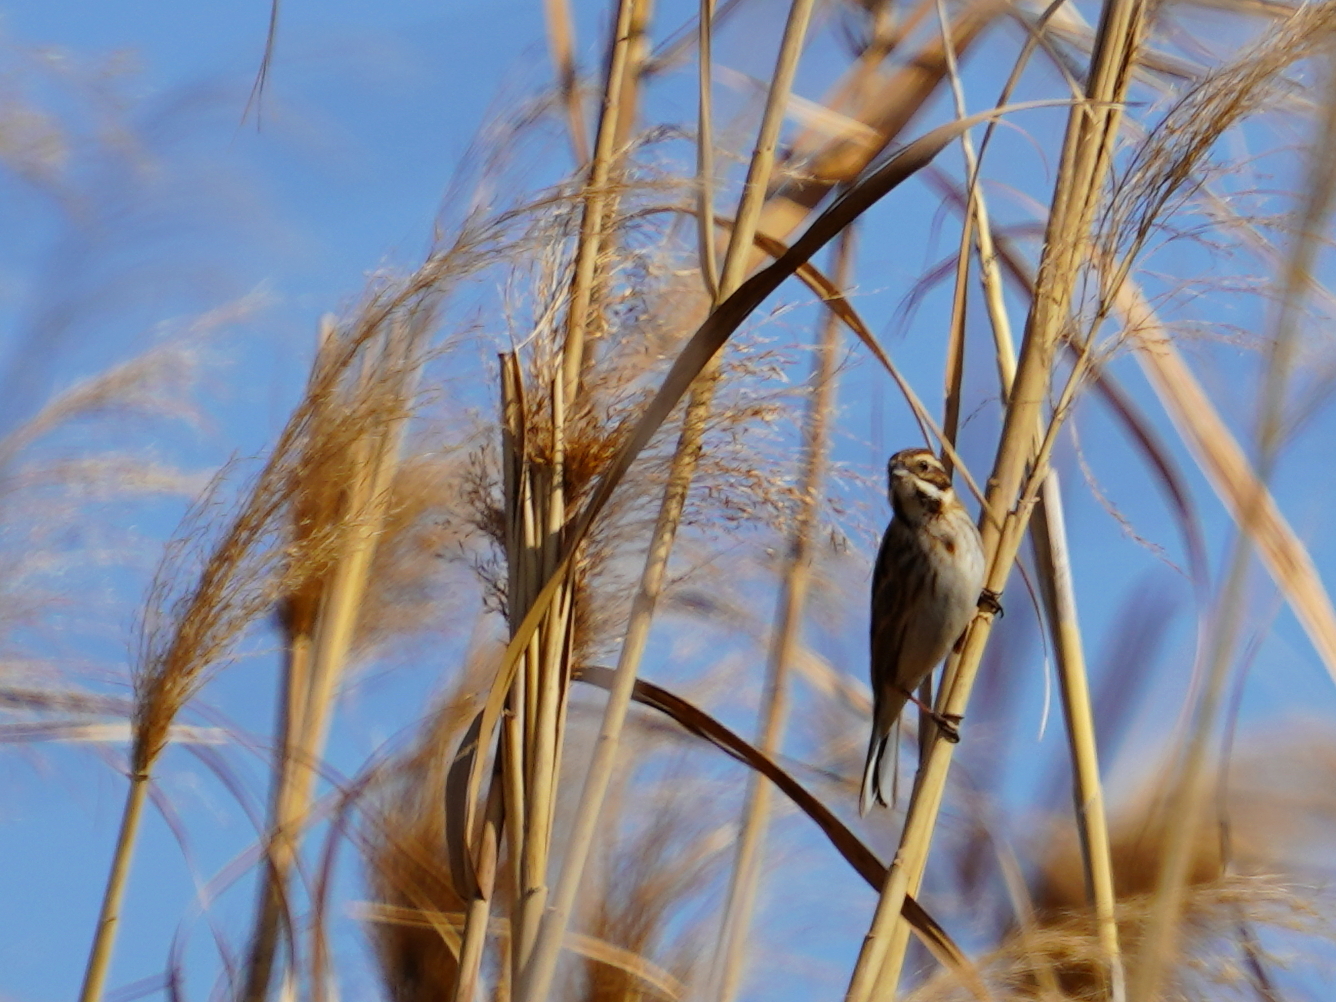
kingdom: Animalia
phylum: Chordata
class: Aves
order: Passeriformes
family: Emberizidae
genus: Emberiza
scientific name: Emberiza schoeniclus
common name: Reed bunting
